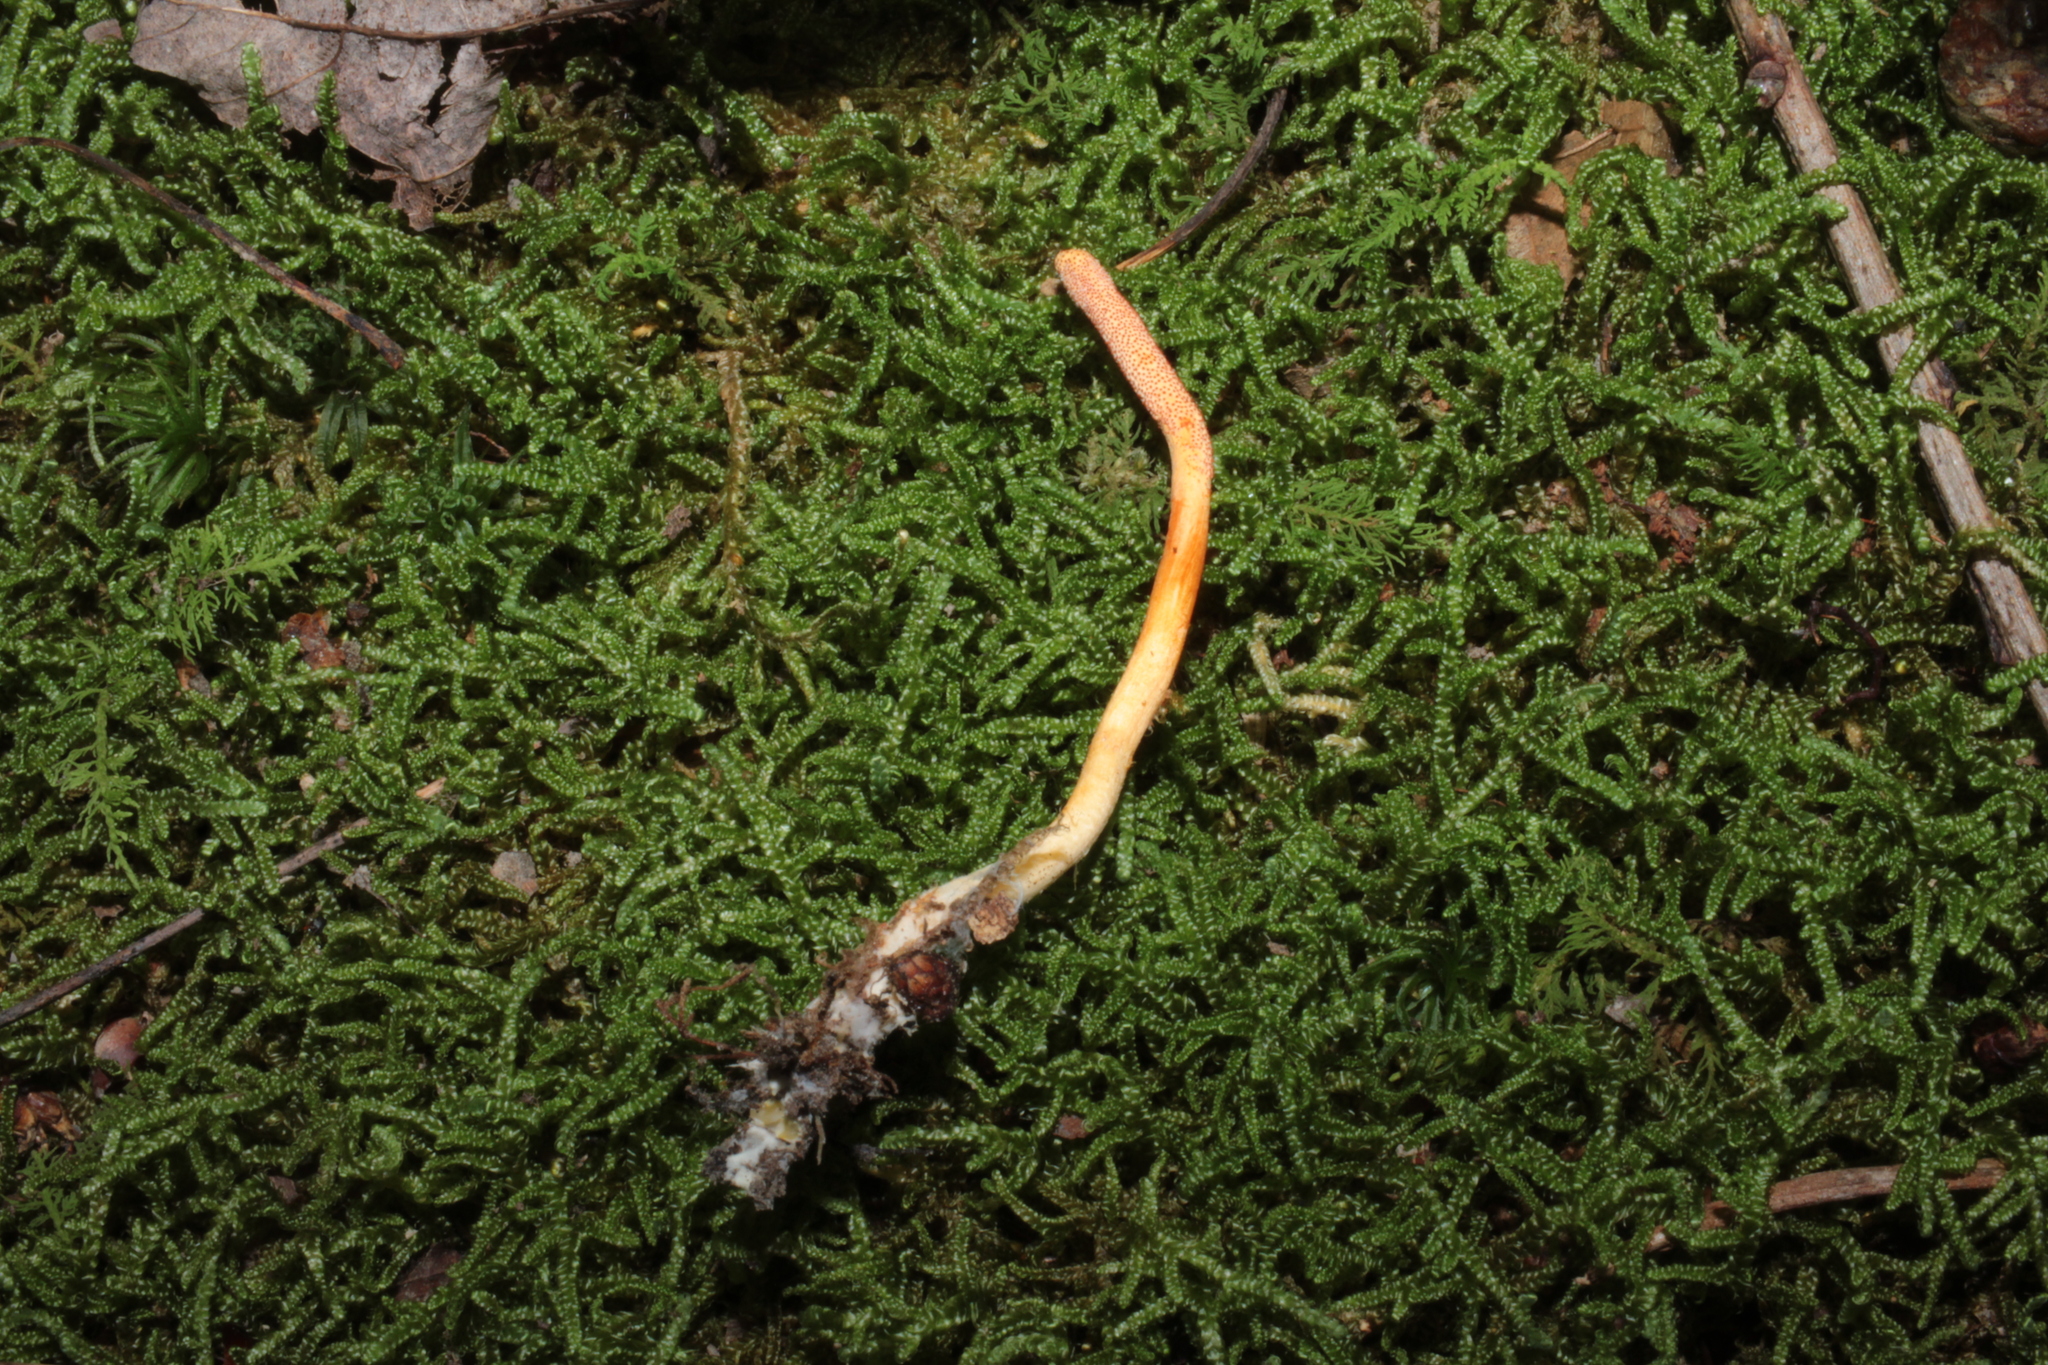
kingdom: Fungi
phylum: Ascomycota
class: Sordariomycetes
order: Hypocreales
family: Cordycipitaceae
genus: Cordyceps
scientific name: Cordyceps militaris
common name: Scarlet caterpillar fungus
